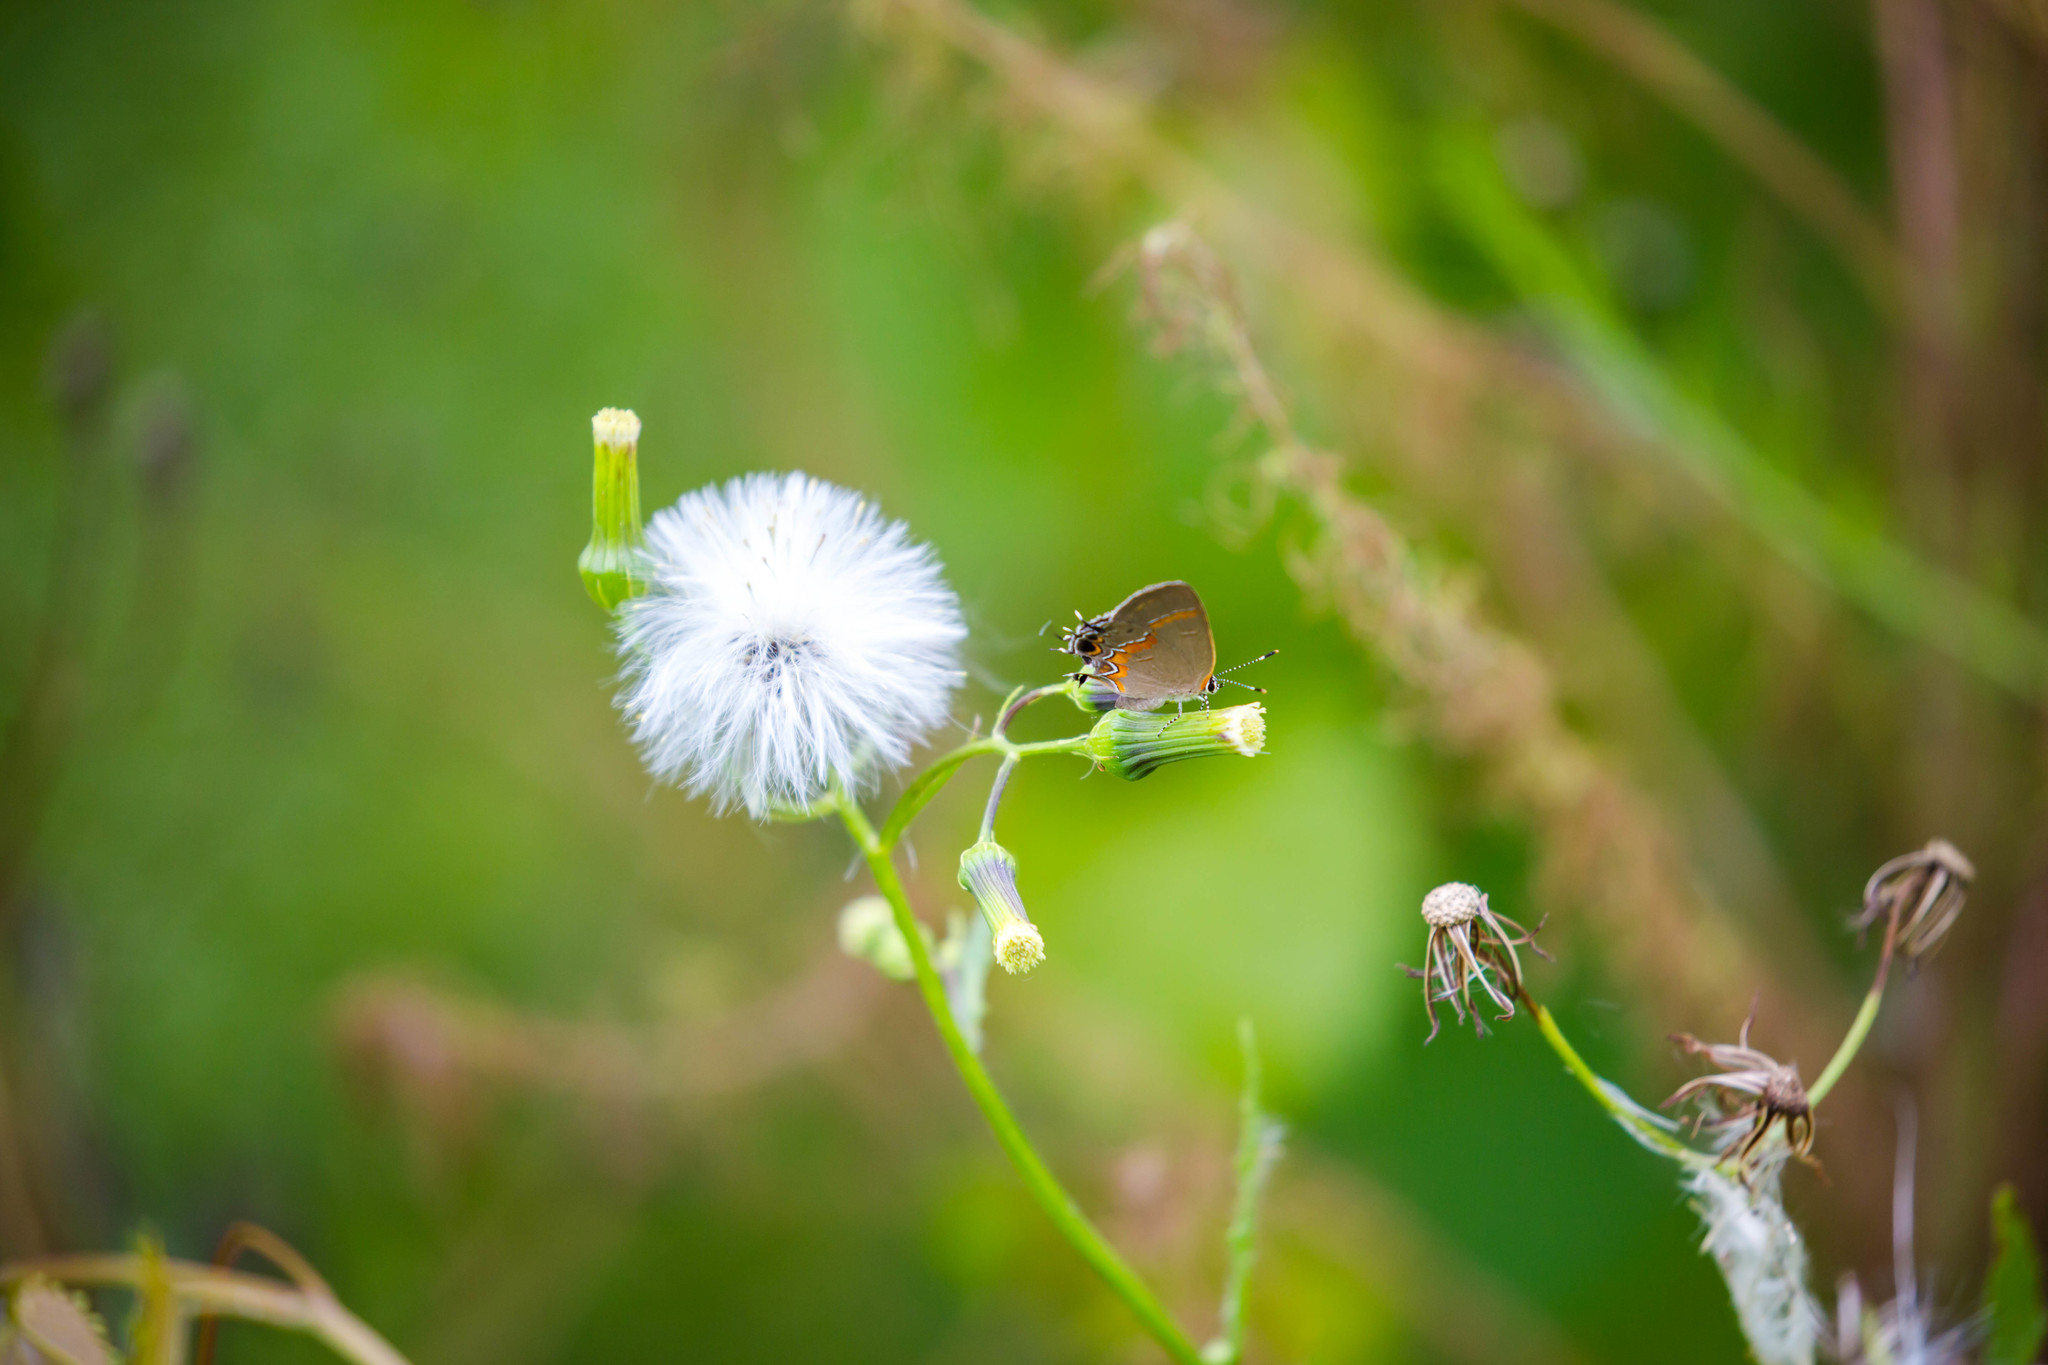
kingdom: Animalia
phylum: Arthropoda
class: Insecta
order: Lepidoptera
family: Lycaenidae
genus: Calycopis
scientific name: Calycopis cecrops
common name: Red-banded hairstreak
